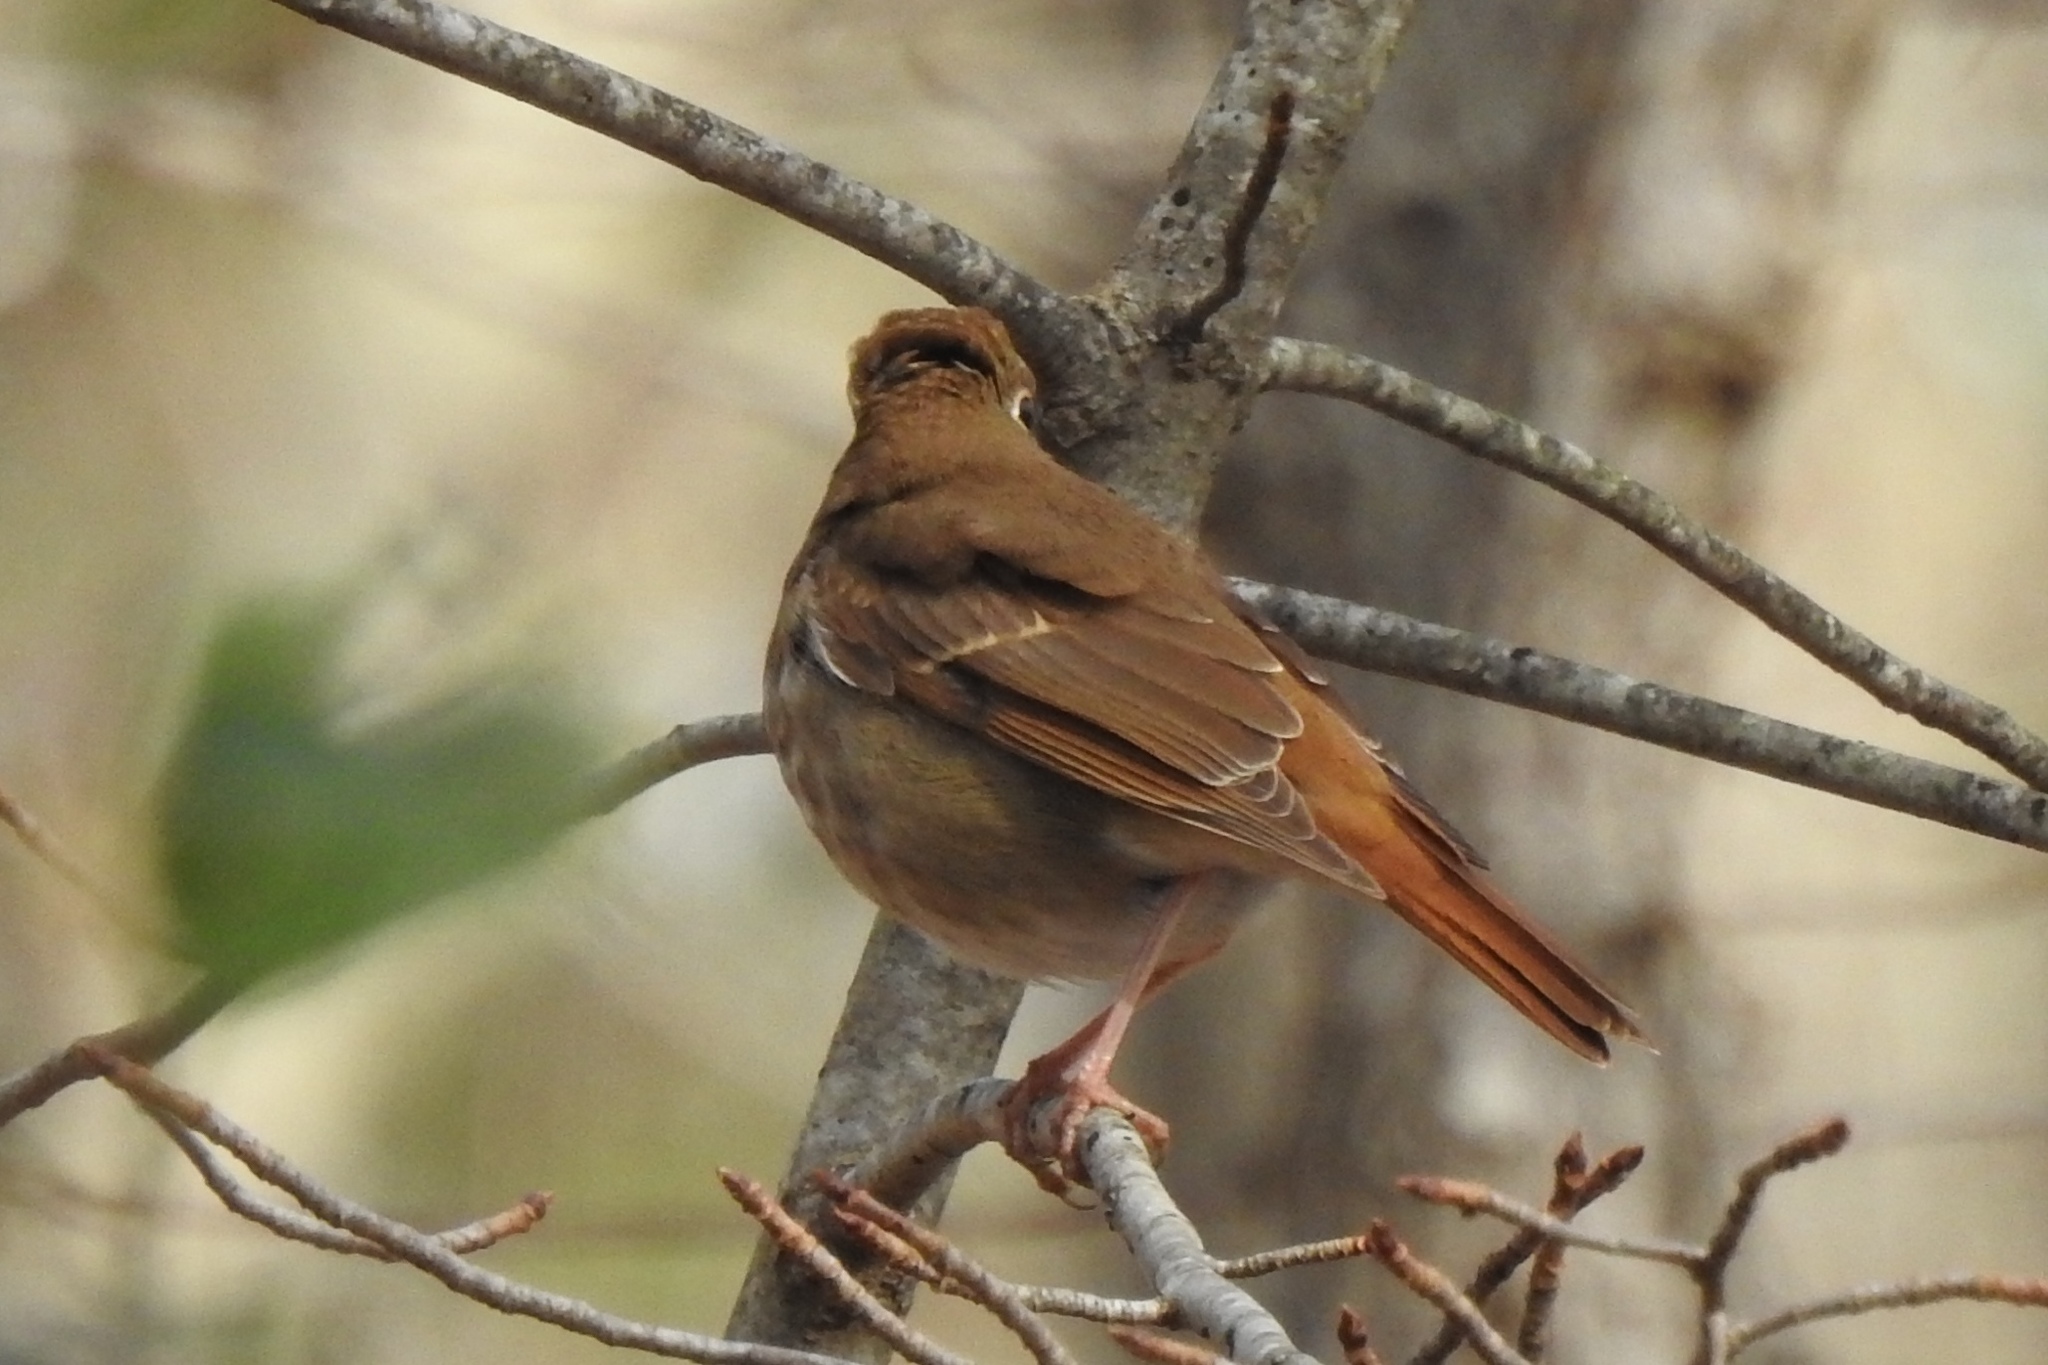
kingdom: Animalia
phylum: Chordata
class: Aves
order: Passeriformes
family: Turdidae
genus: Catharus
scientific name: Catharus guttatus
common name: Hermit thrush
